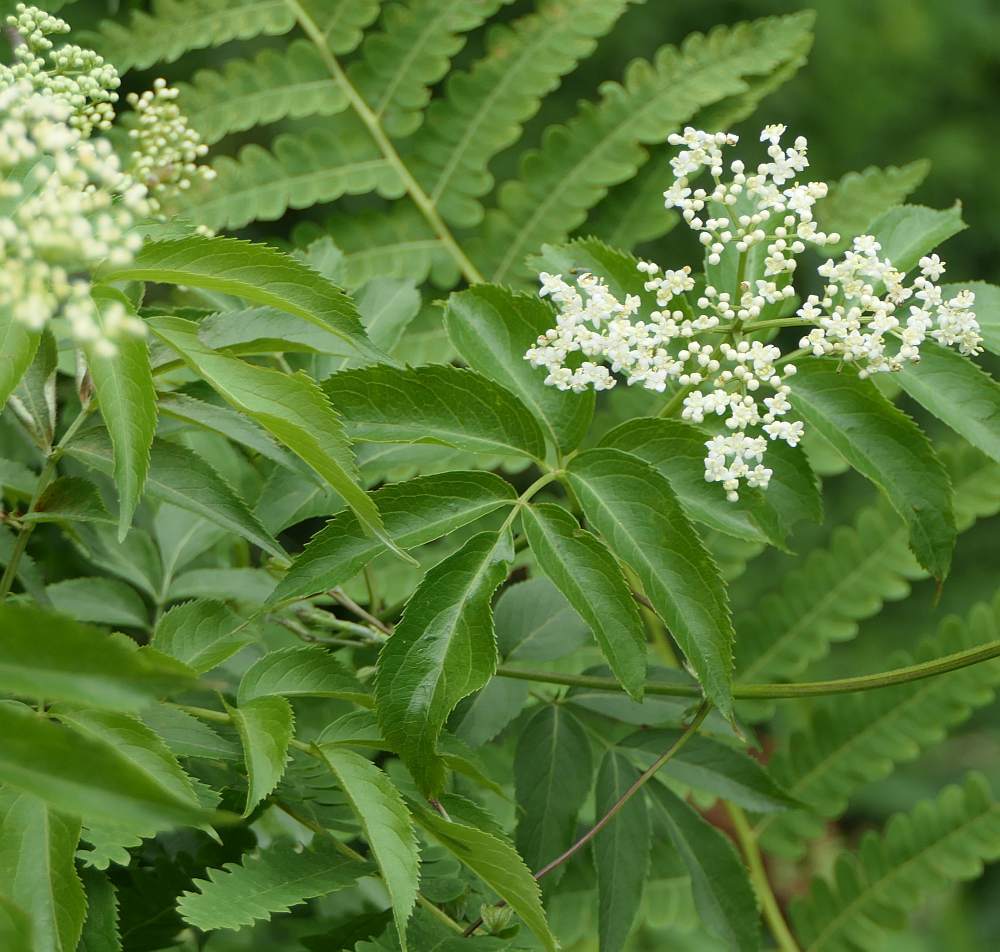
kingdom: Plantae
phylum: Tracheophyta
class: Magnoliopsida
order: Dipsacales
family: Viburnaceae
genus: Sambucus
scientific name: Sambucus canadensis
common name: American elder
